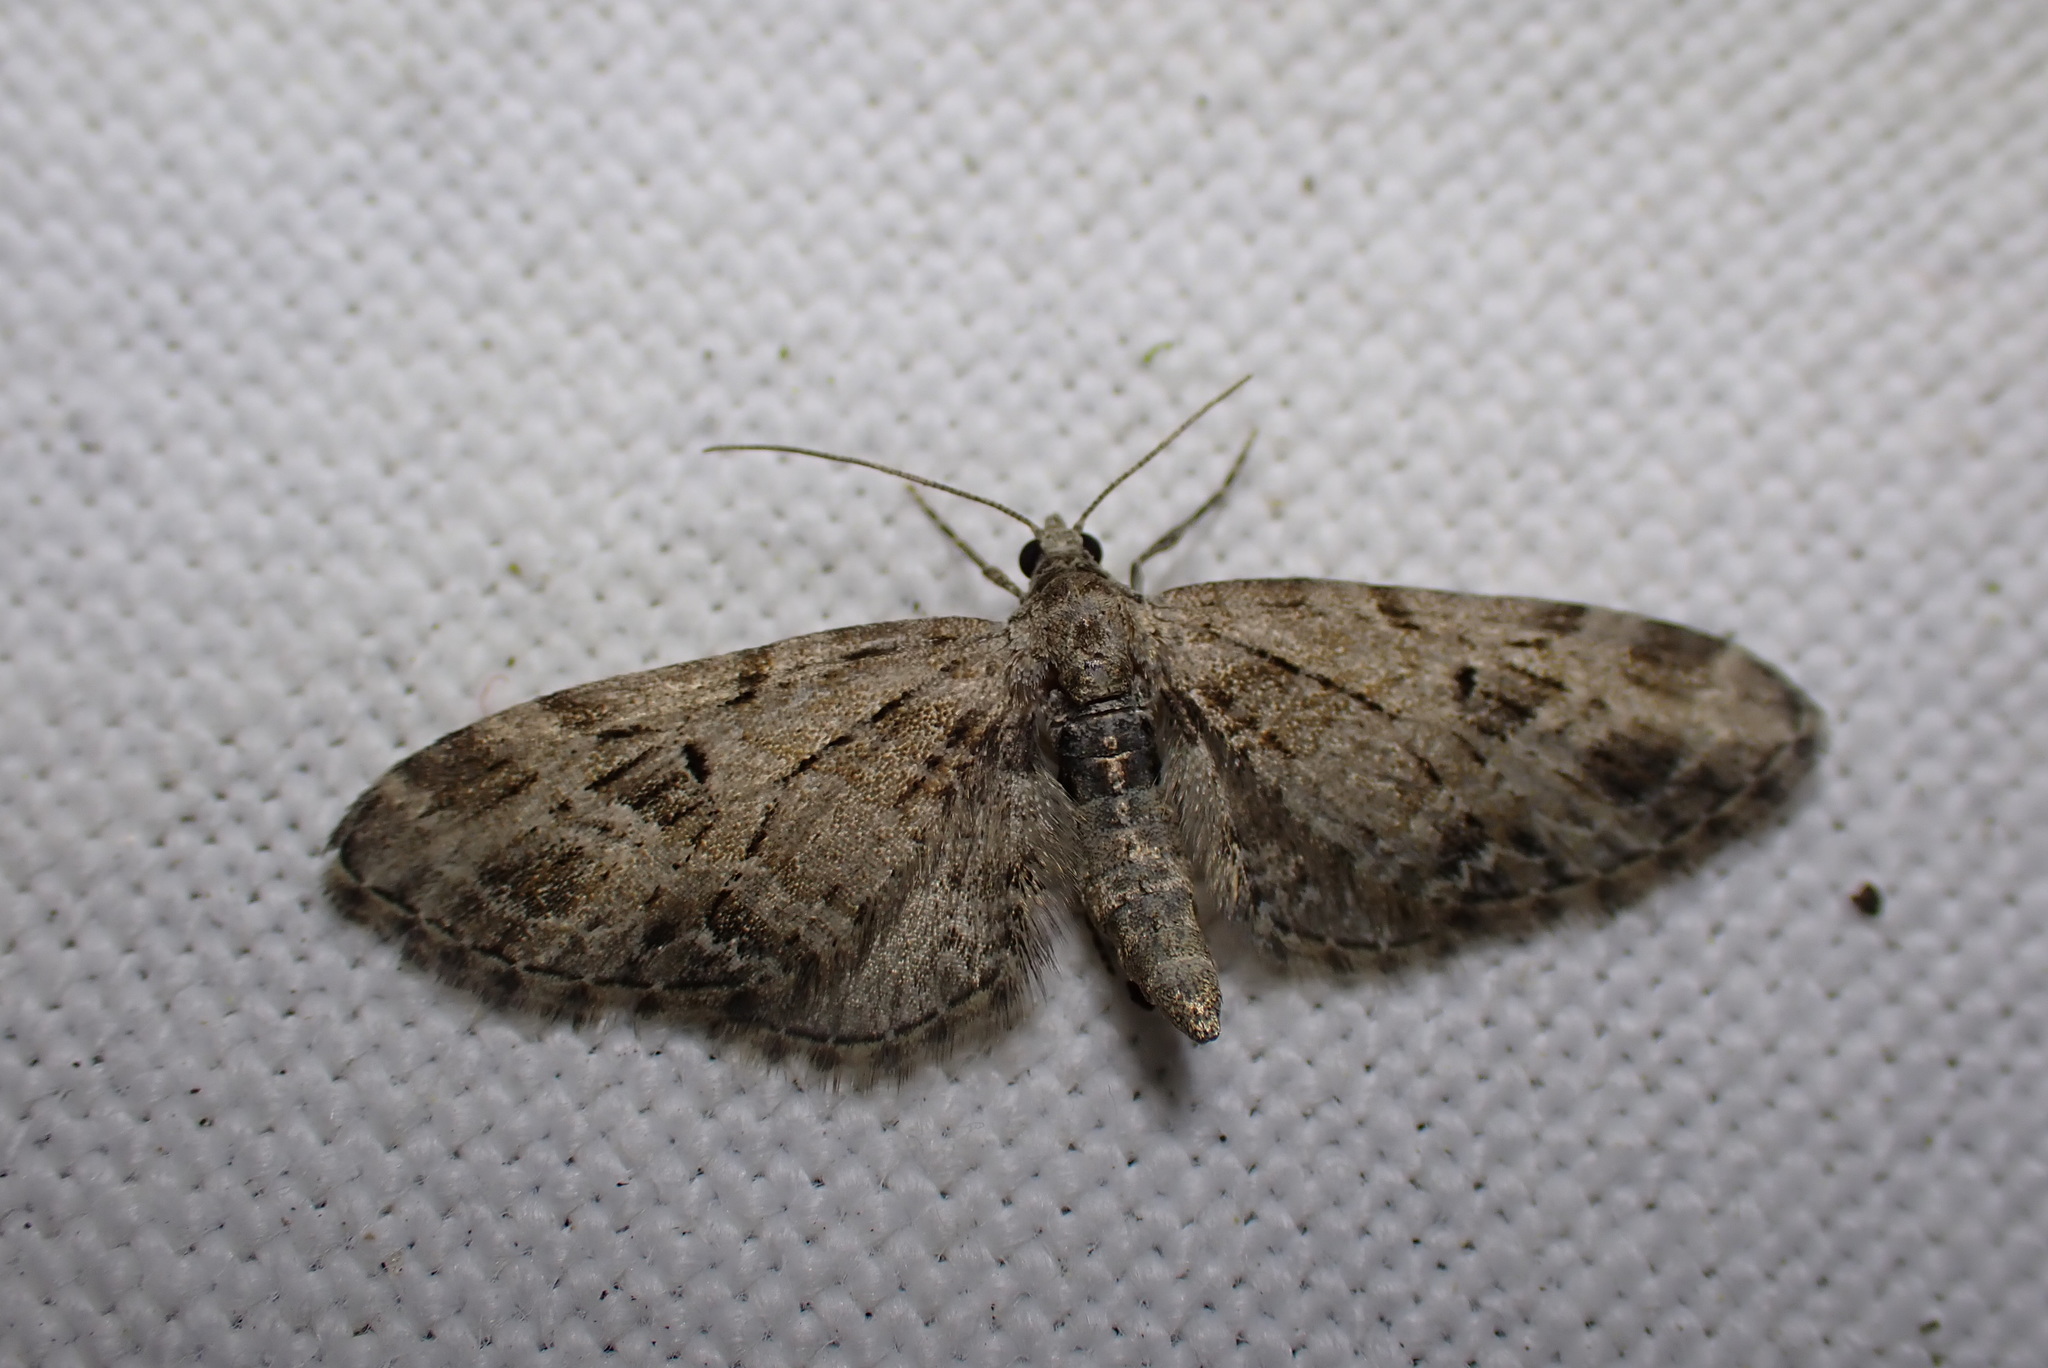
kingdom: Animalia
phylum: Arthropoda
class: Insecta
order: Lepidoptera
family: Geometridae
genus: Eupithecia
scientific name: Eupithecia exiguata
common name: Mottled pug
